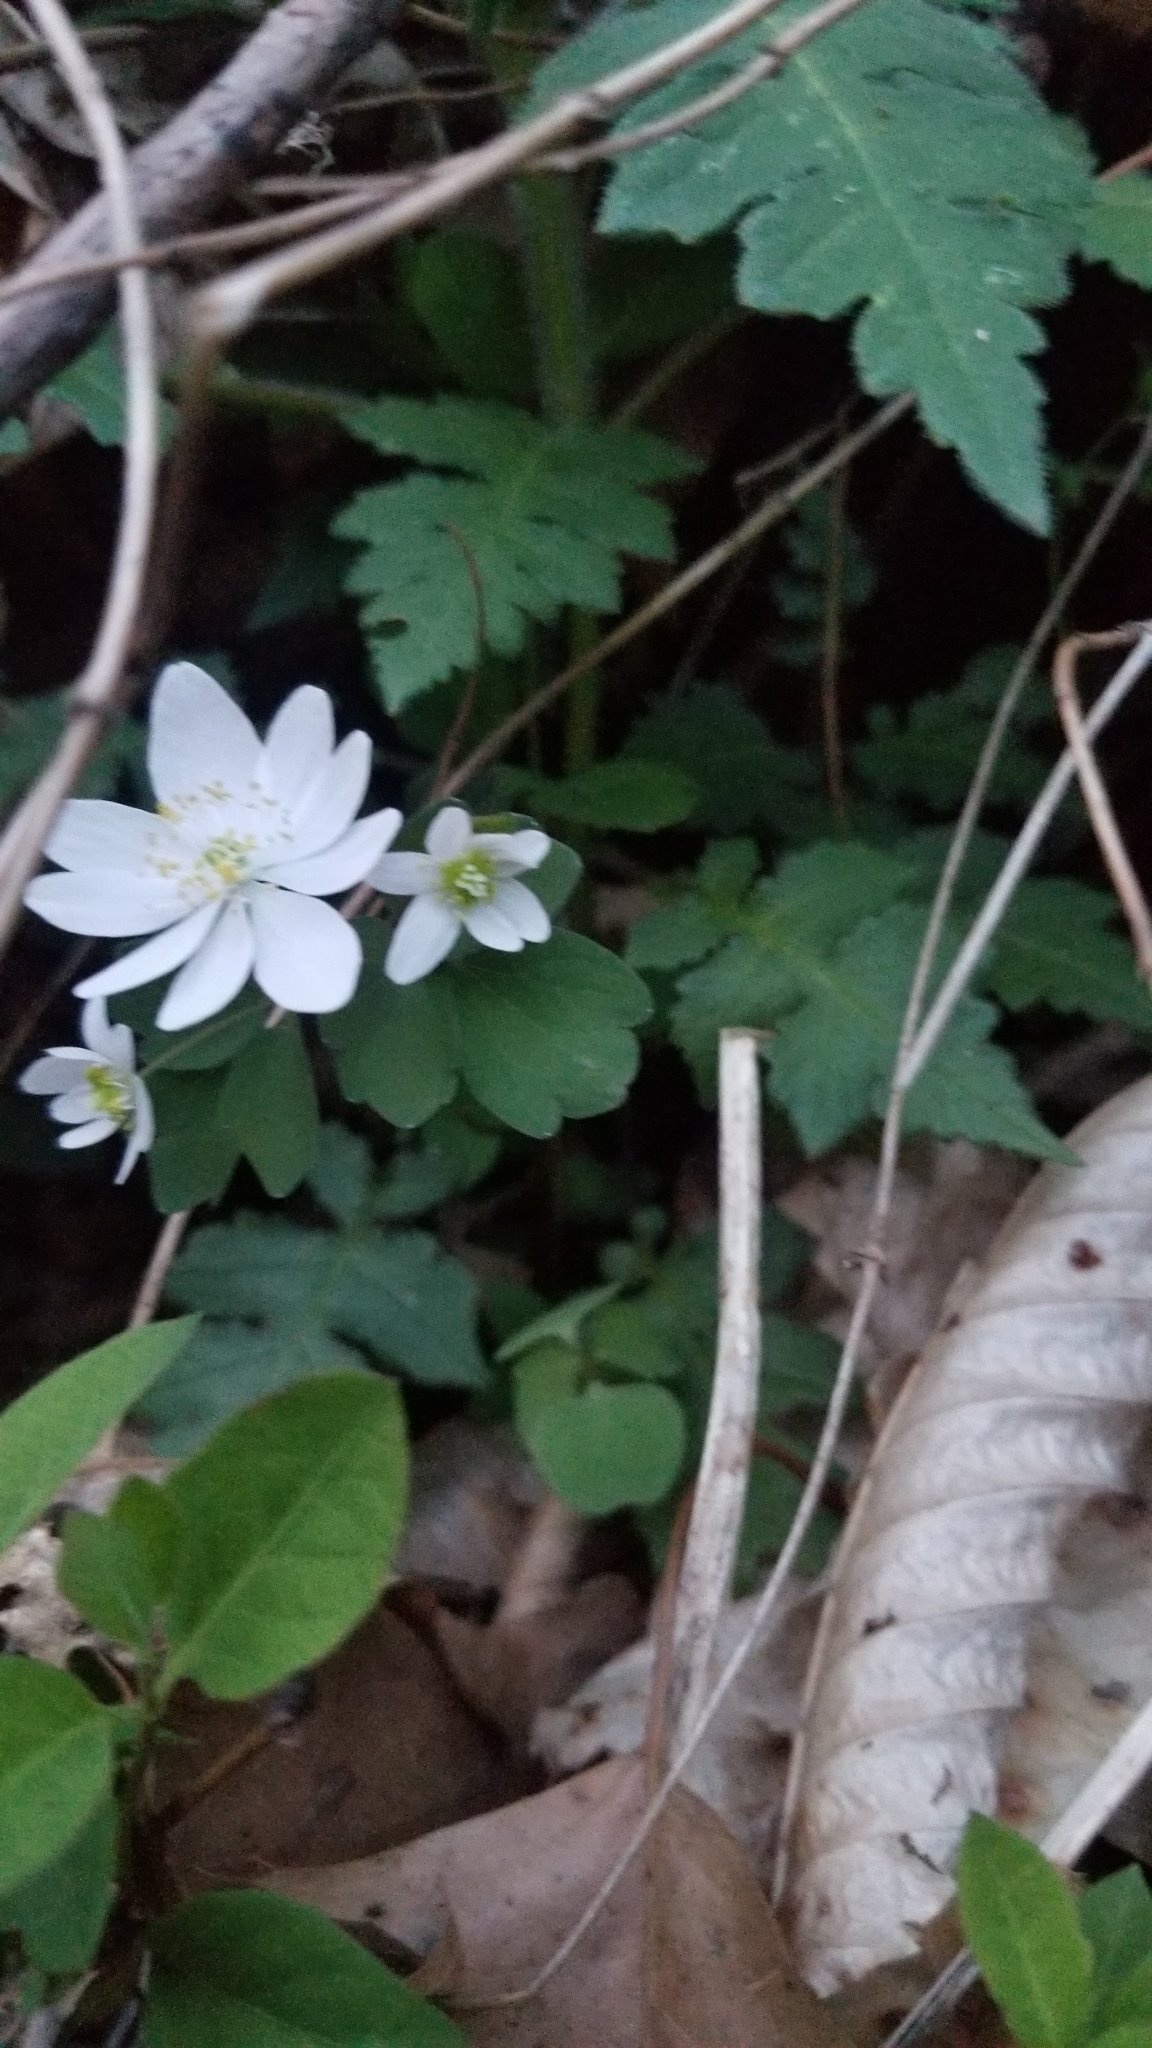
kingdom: Plantae
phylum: Tracheophyta
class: Magnoliopsida
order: Ranunculales
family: Ranunculaceae
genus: Thalictrum
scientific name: Thalictrum thalictroides
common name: Rue-anemone
